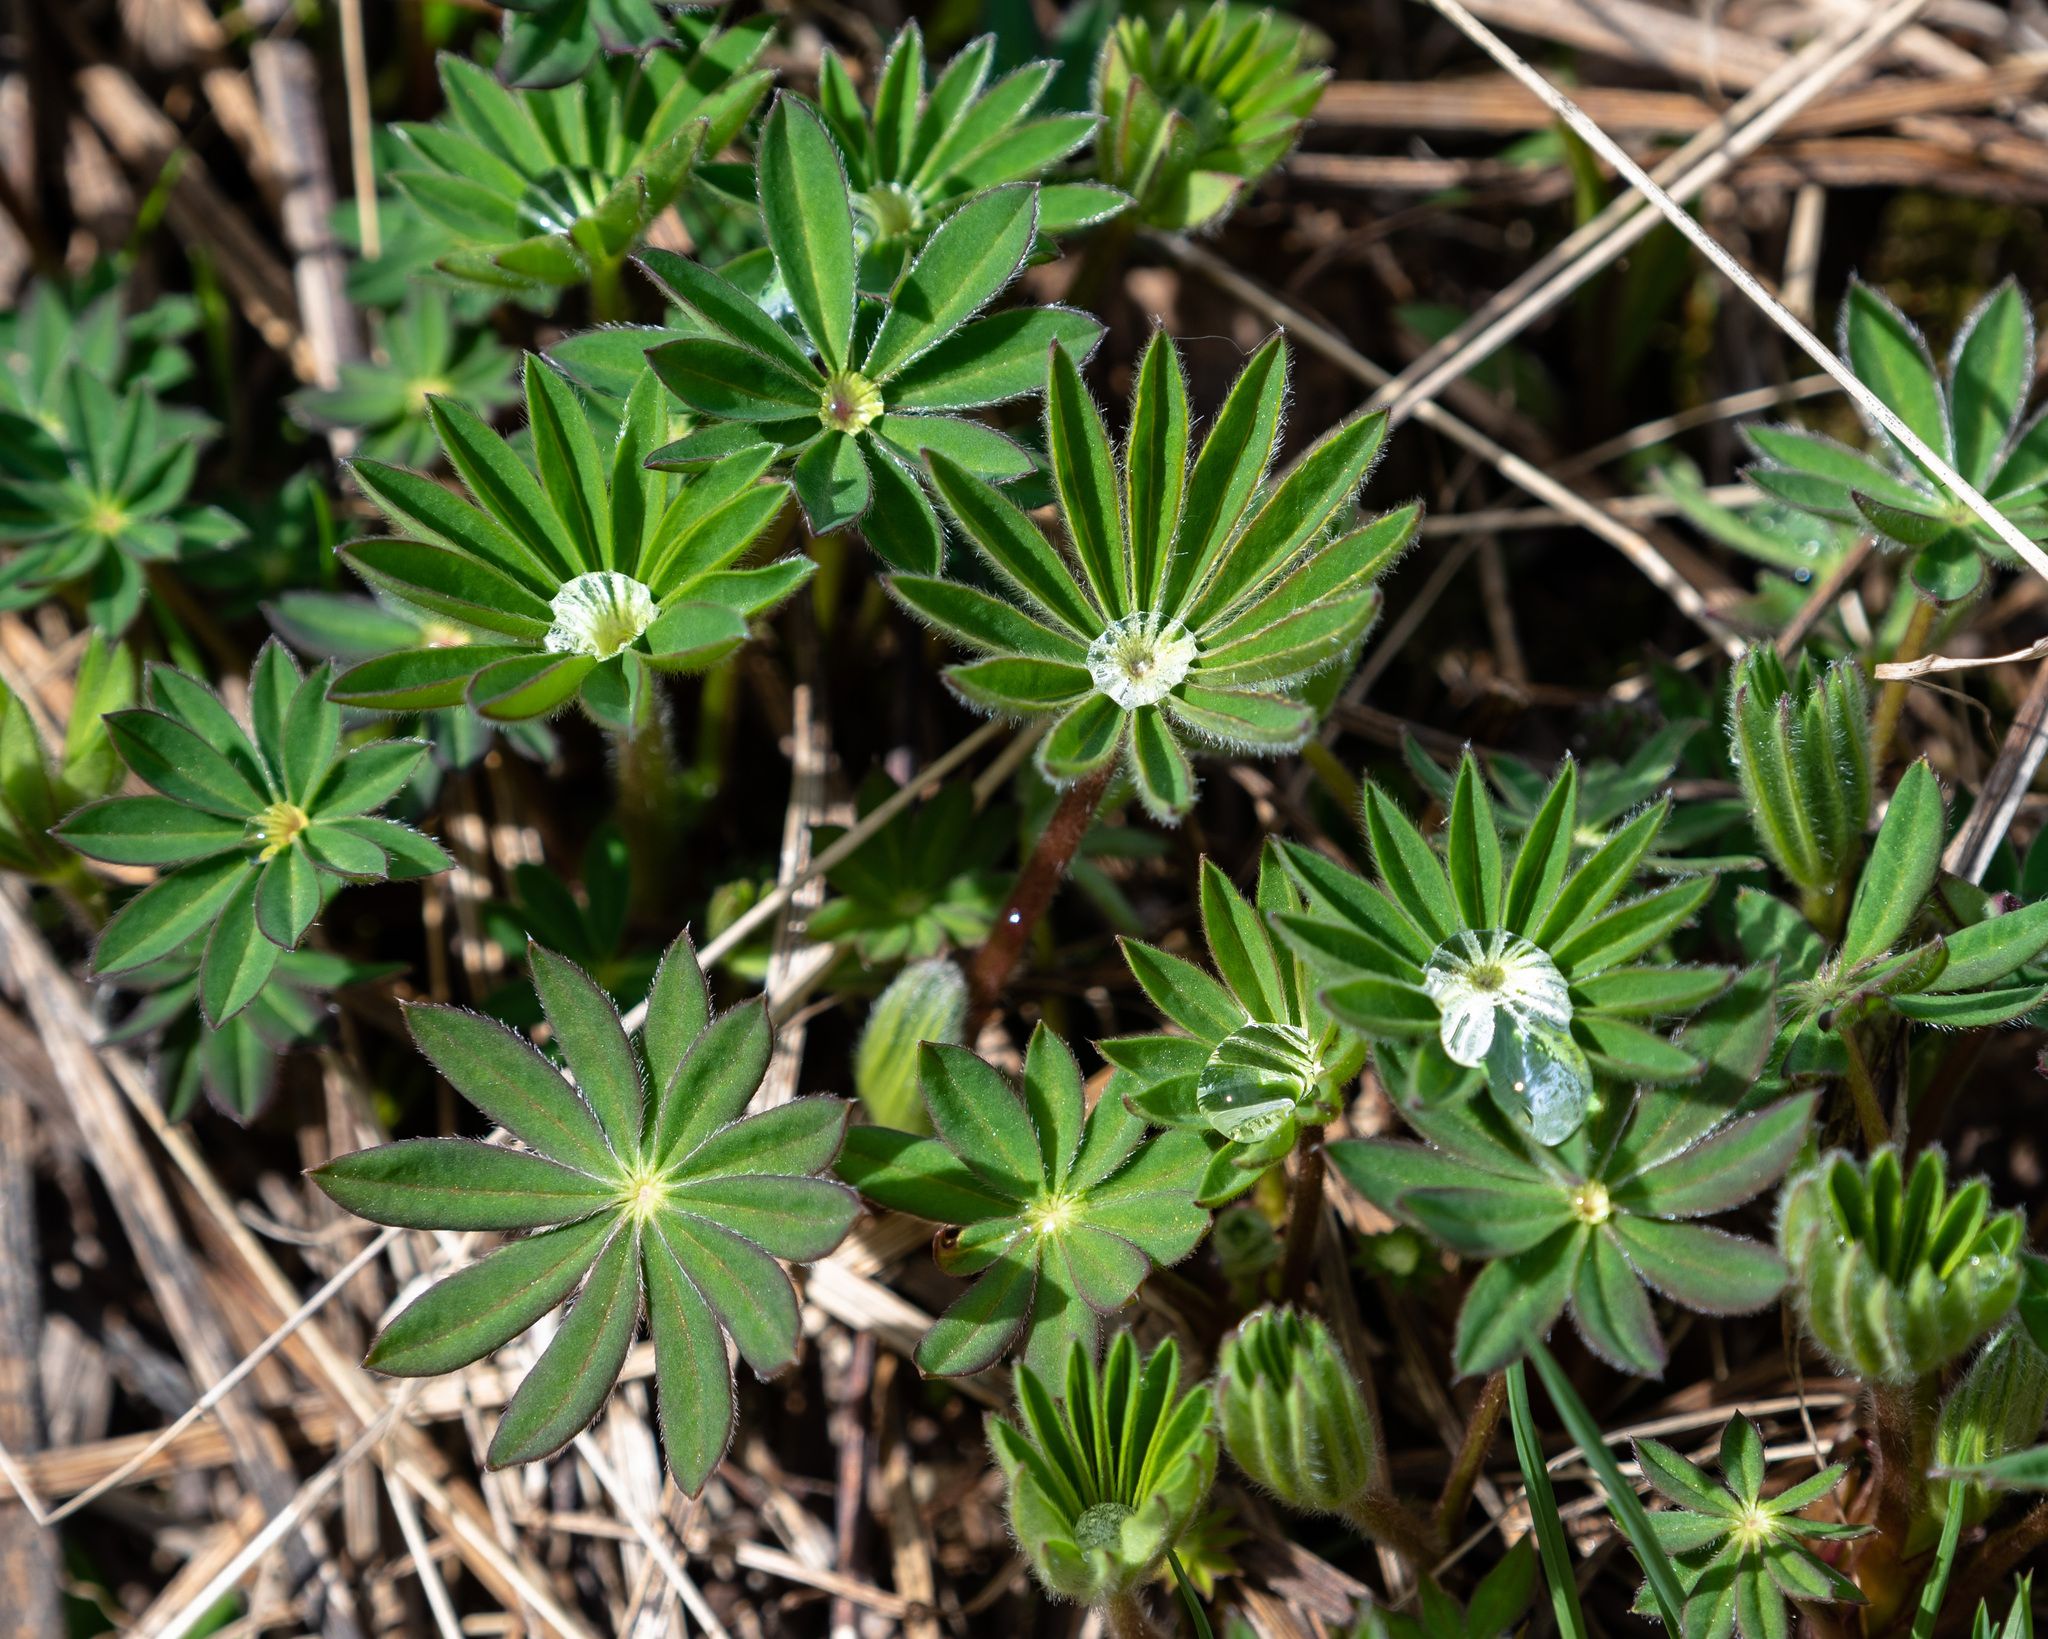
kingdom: Plantae
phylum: Tracheophyta
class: Magnoliopsida
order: Fabales
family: Fabaceae
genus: Lupinus
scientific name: Lupinus polyphyllus
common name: Garden lupin
